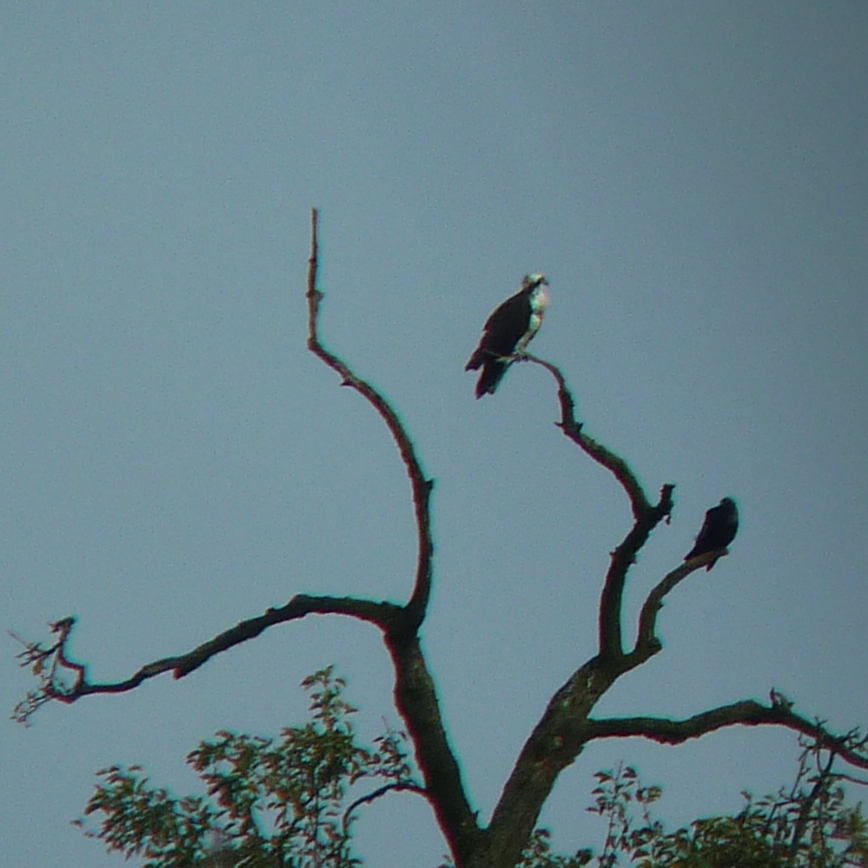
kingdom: Animalia
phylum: Chordata
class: Aves
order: Accipitriformes
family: Pandionidae
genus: Pandion
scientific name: Pandion haliaetus
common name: Osprey
